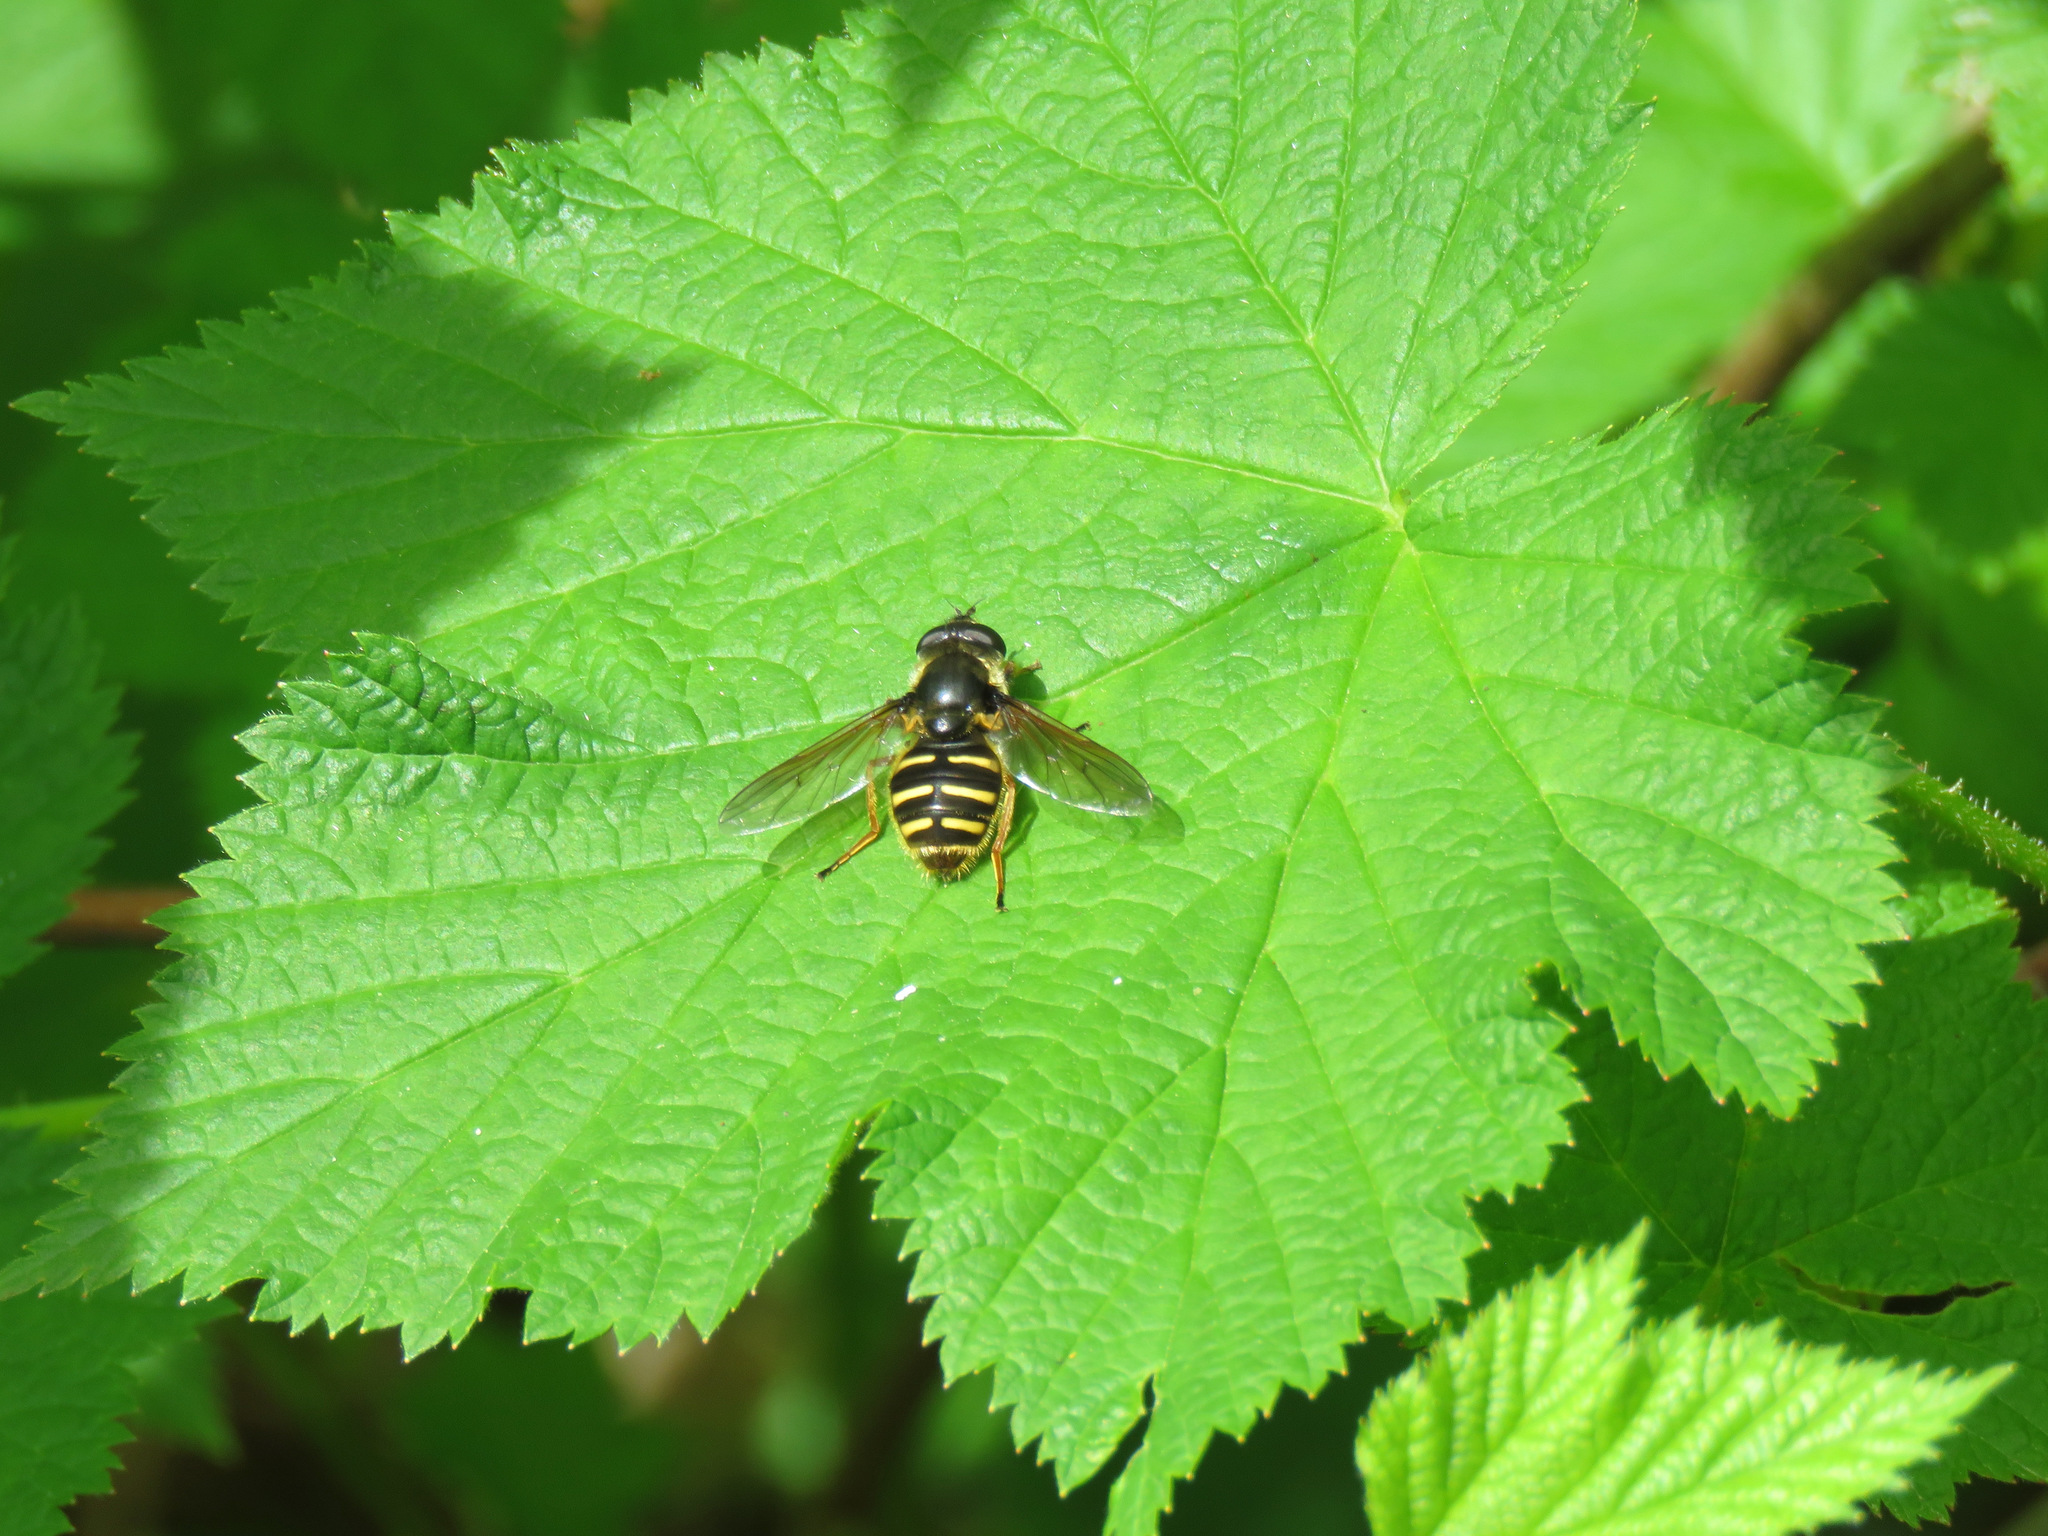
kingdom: Animalia
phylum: Arthropoda
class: Insecta
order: Diptera
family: Syrphidae
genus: Sericomyia
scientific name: Sericomyia chalcopyga
